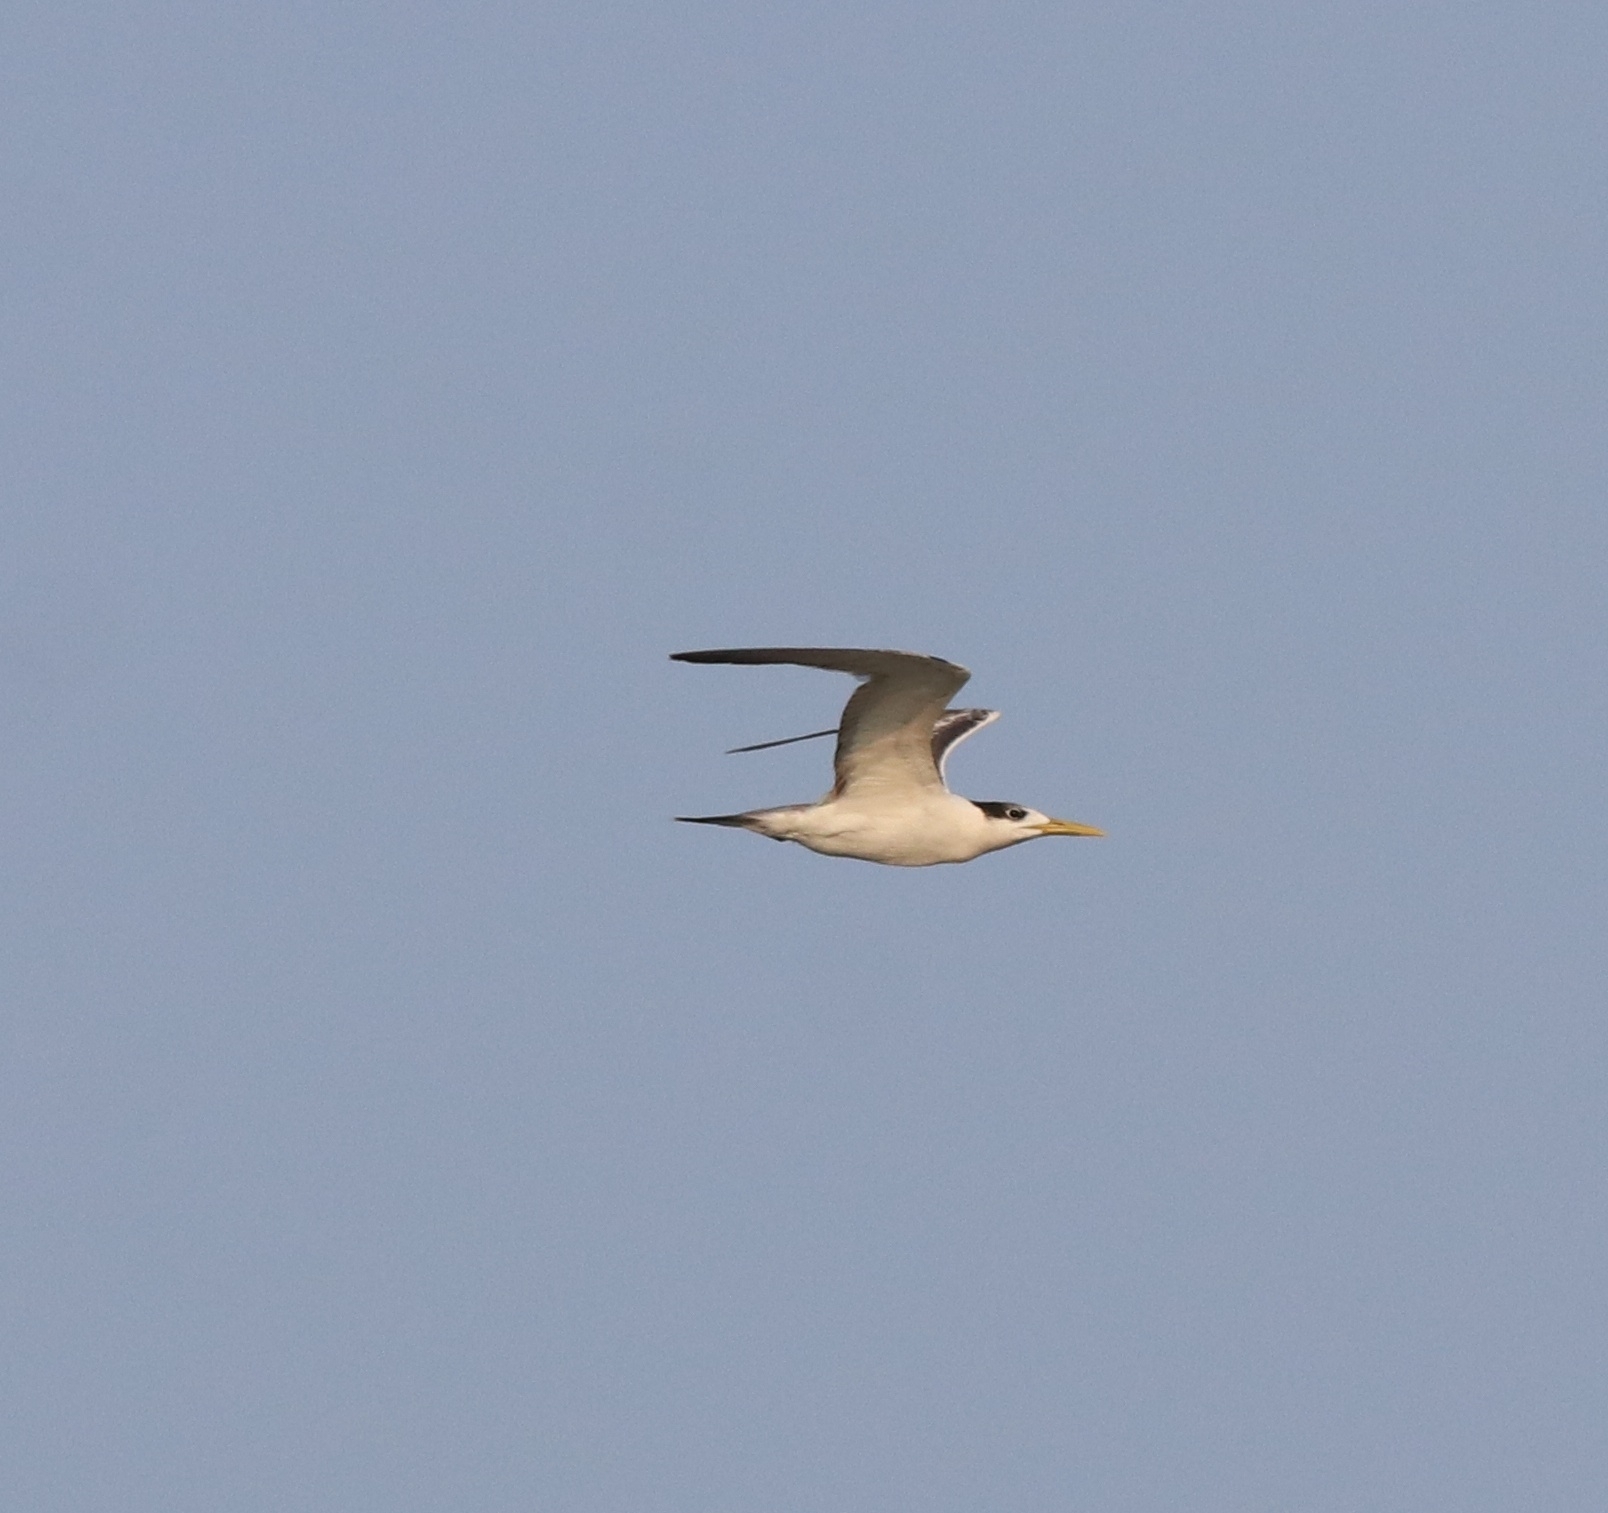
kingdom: Animalia
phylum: Chordata
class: Aves
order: Charadriiformes
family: Laridae
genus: Thalasseus
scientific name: Thalasseus bergii
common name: Greater crested tern
